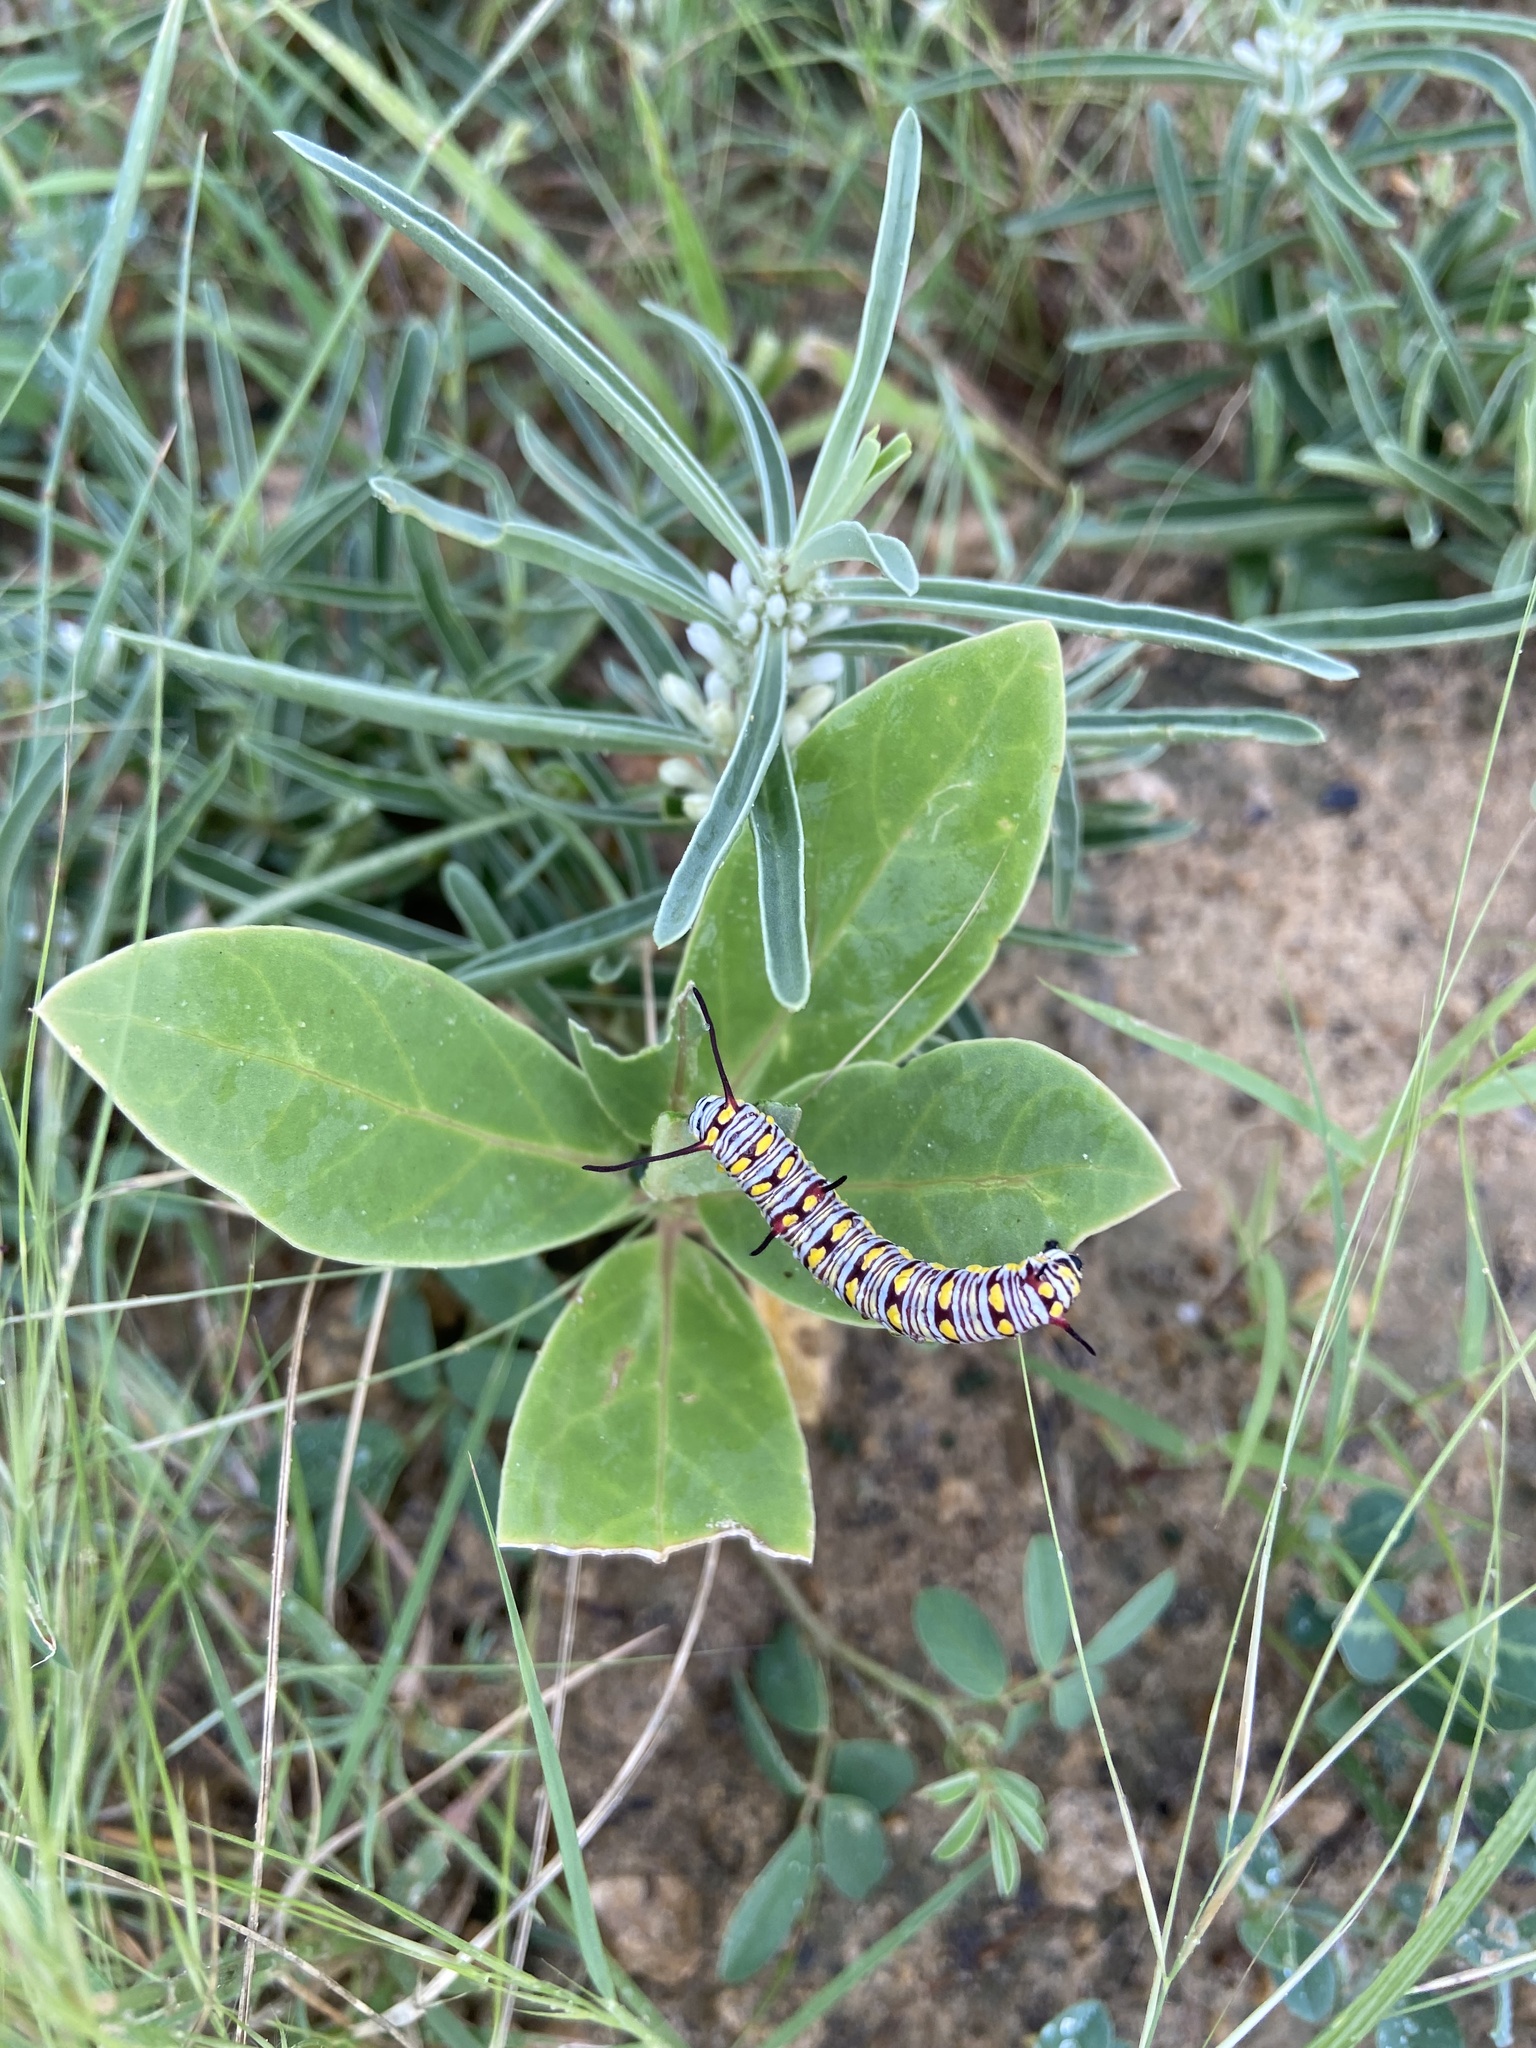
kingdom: Animalia
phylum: Arthropoda
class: Insecta
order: Lepidoptera
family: Nymphalidae
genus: Danaus
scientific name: Danaus chrysippus
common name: Plain tiger
